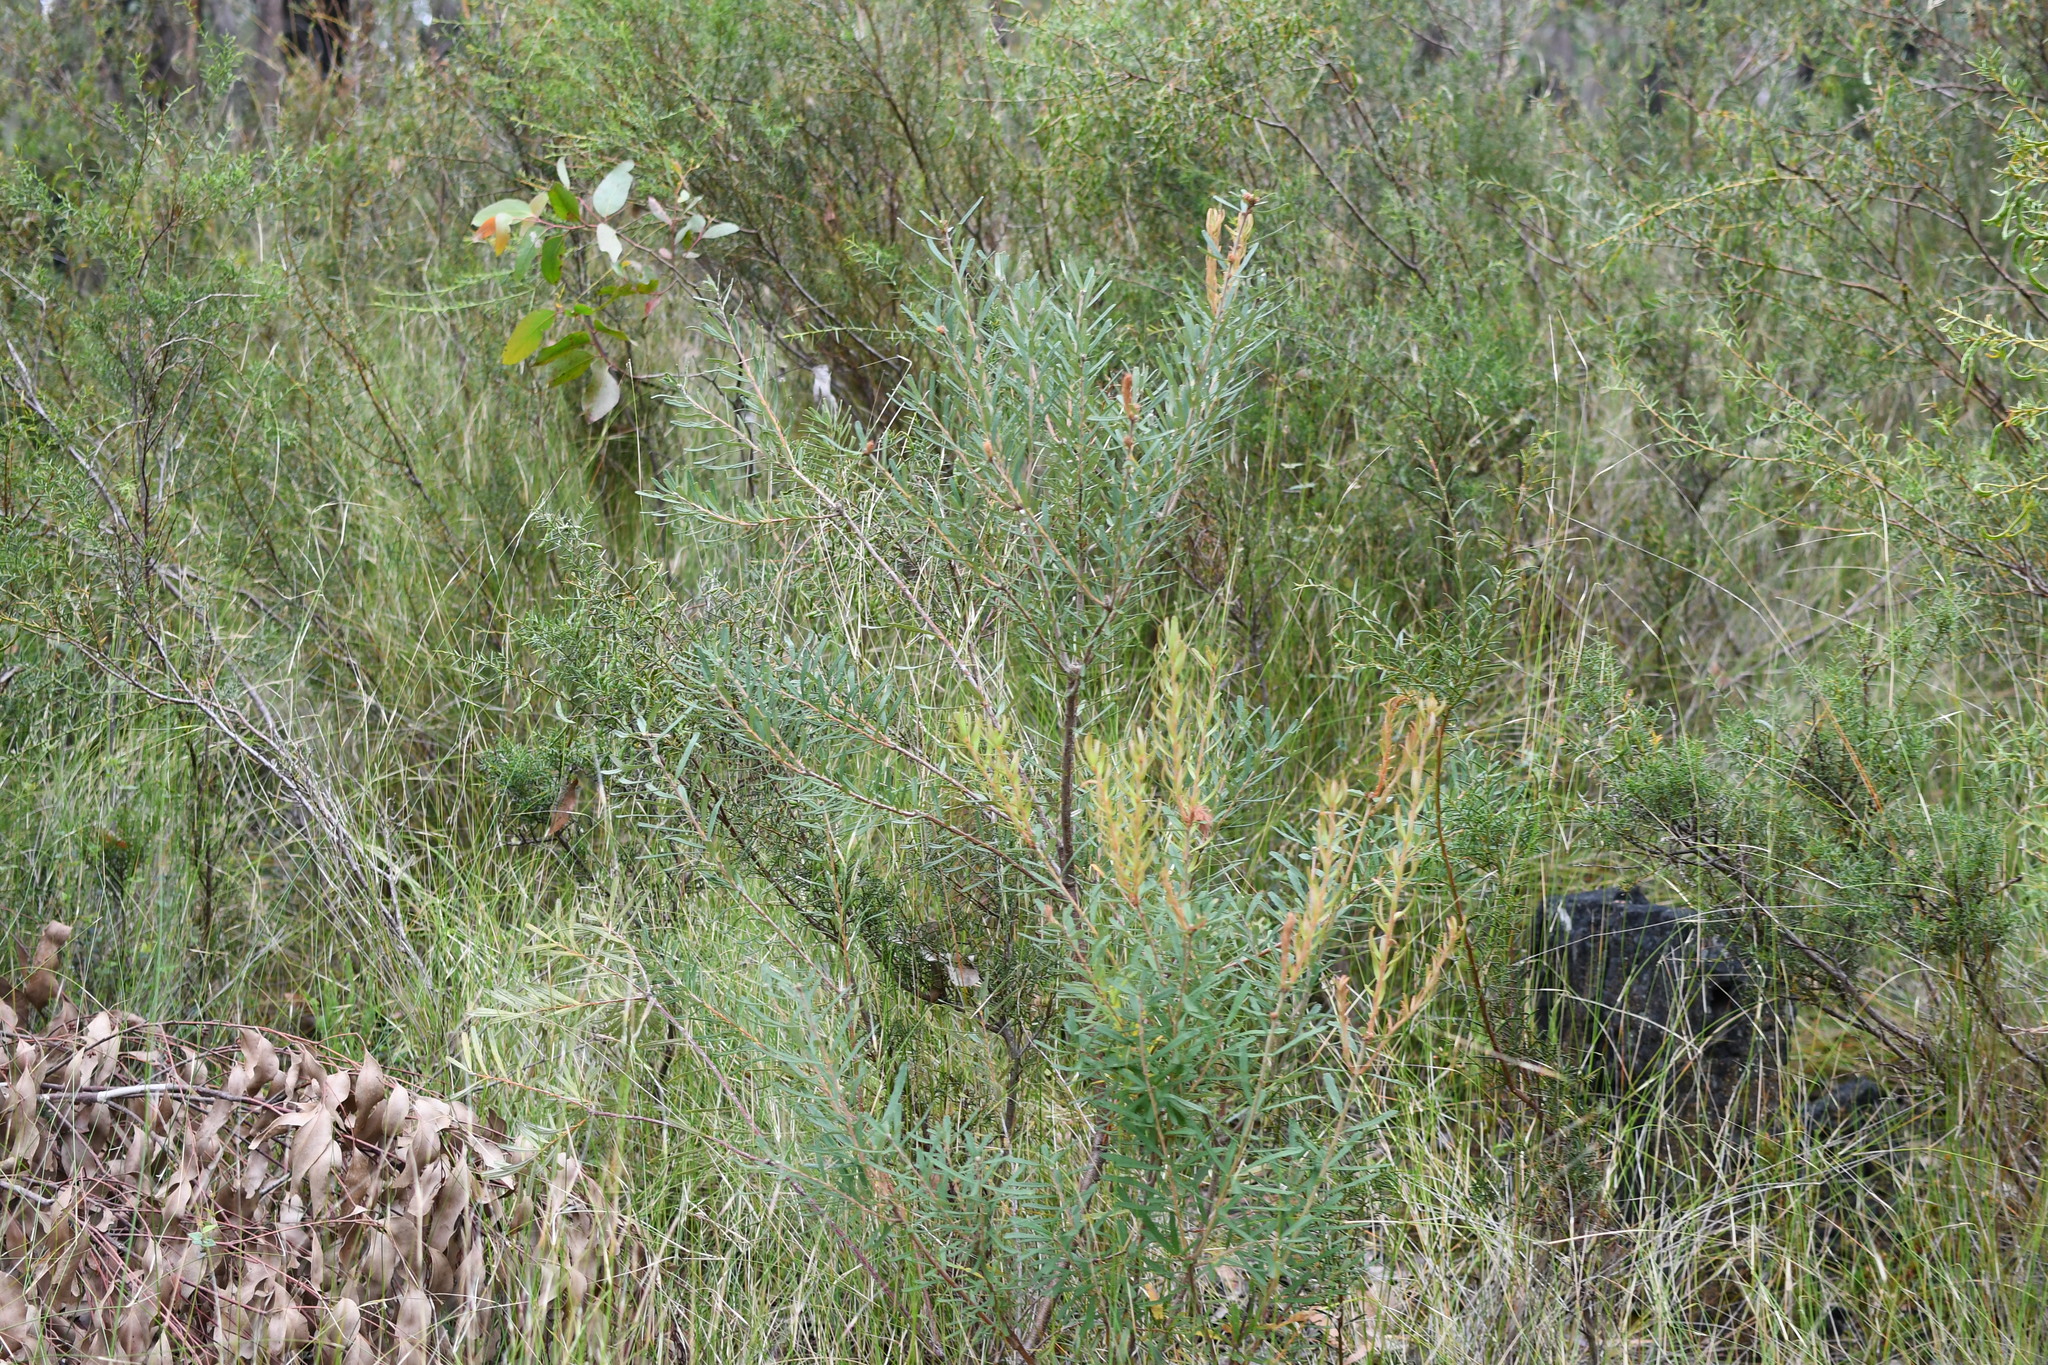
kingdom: Plantae
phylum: Tracheophyta
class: Magnoliopsida
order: Proteales
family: Proteaceae
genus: Banksia
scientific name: Banksia marginata
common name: Silver banksia
